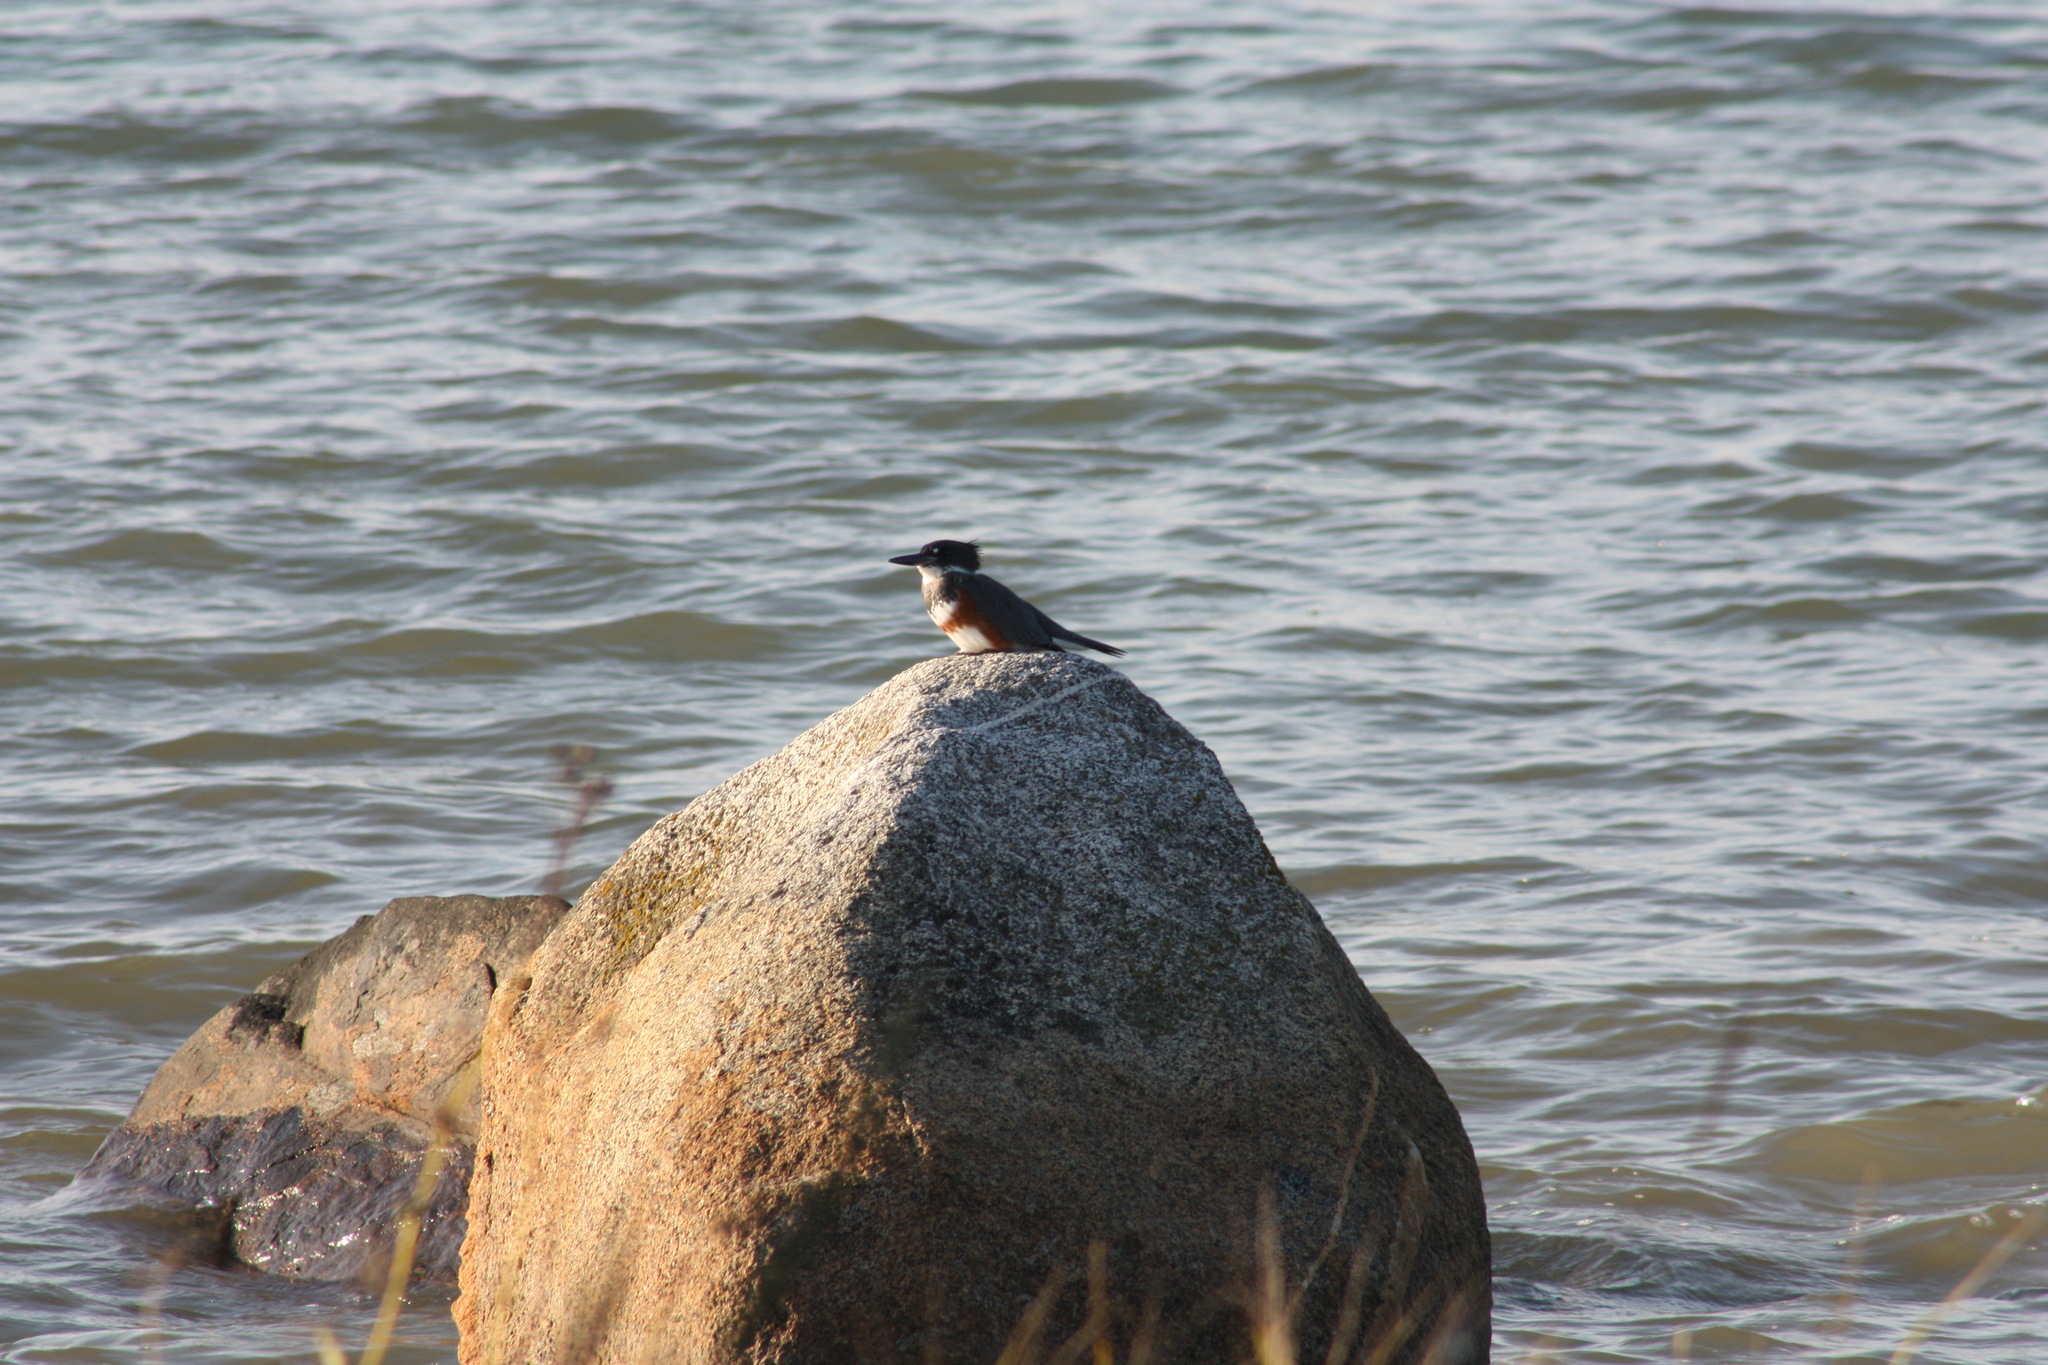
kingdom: Animalia
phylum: Chordata
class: Aves
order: Coraciiformes
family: Alcedinidae
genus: Megaceryle
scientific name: Megaceryle alcyon
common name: Belted kingfisher
